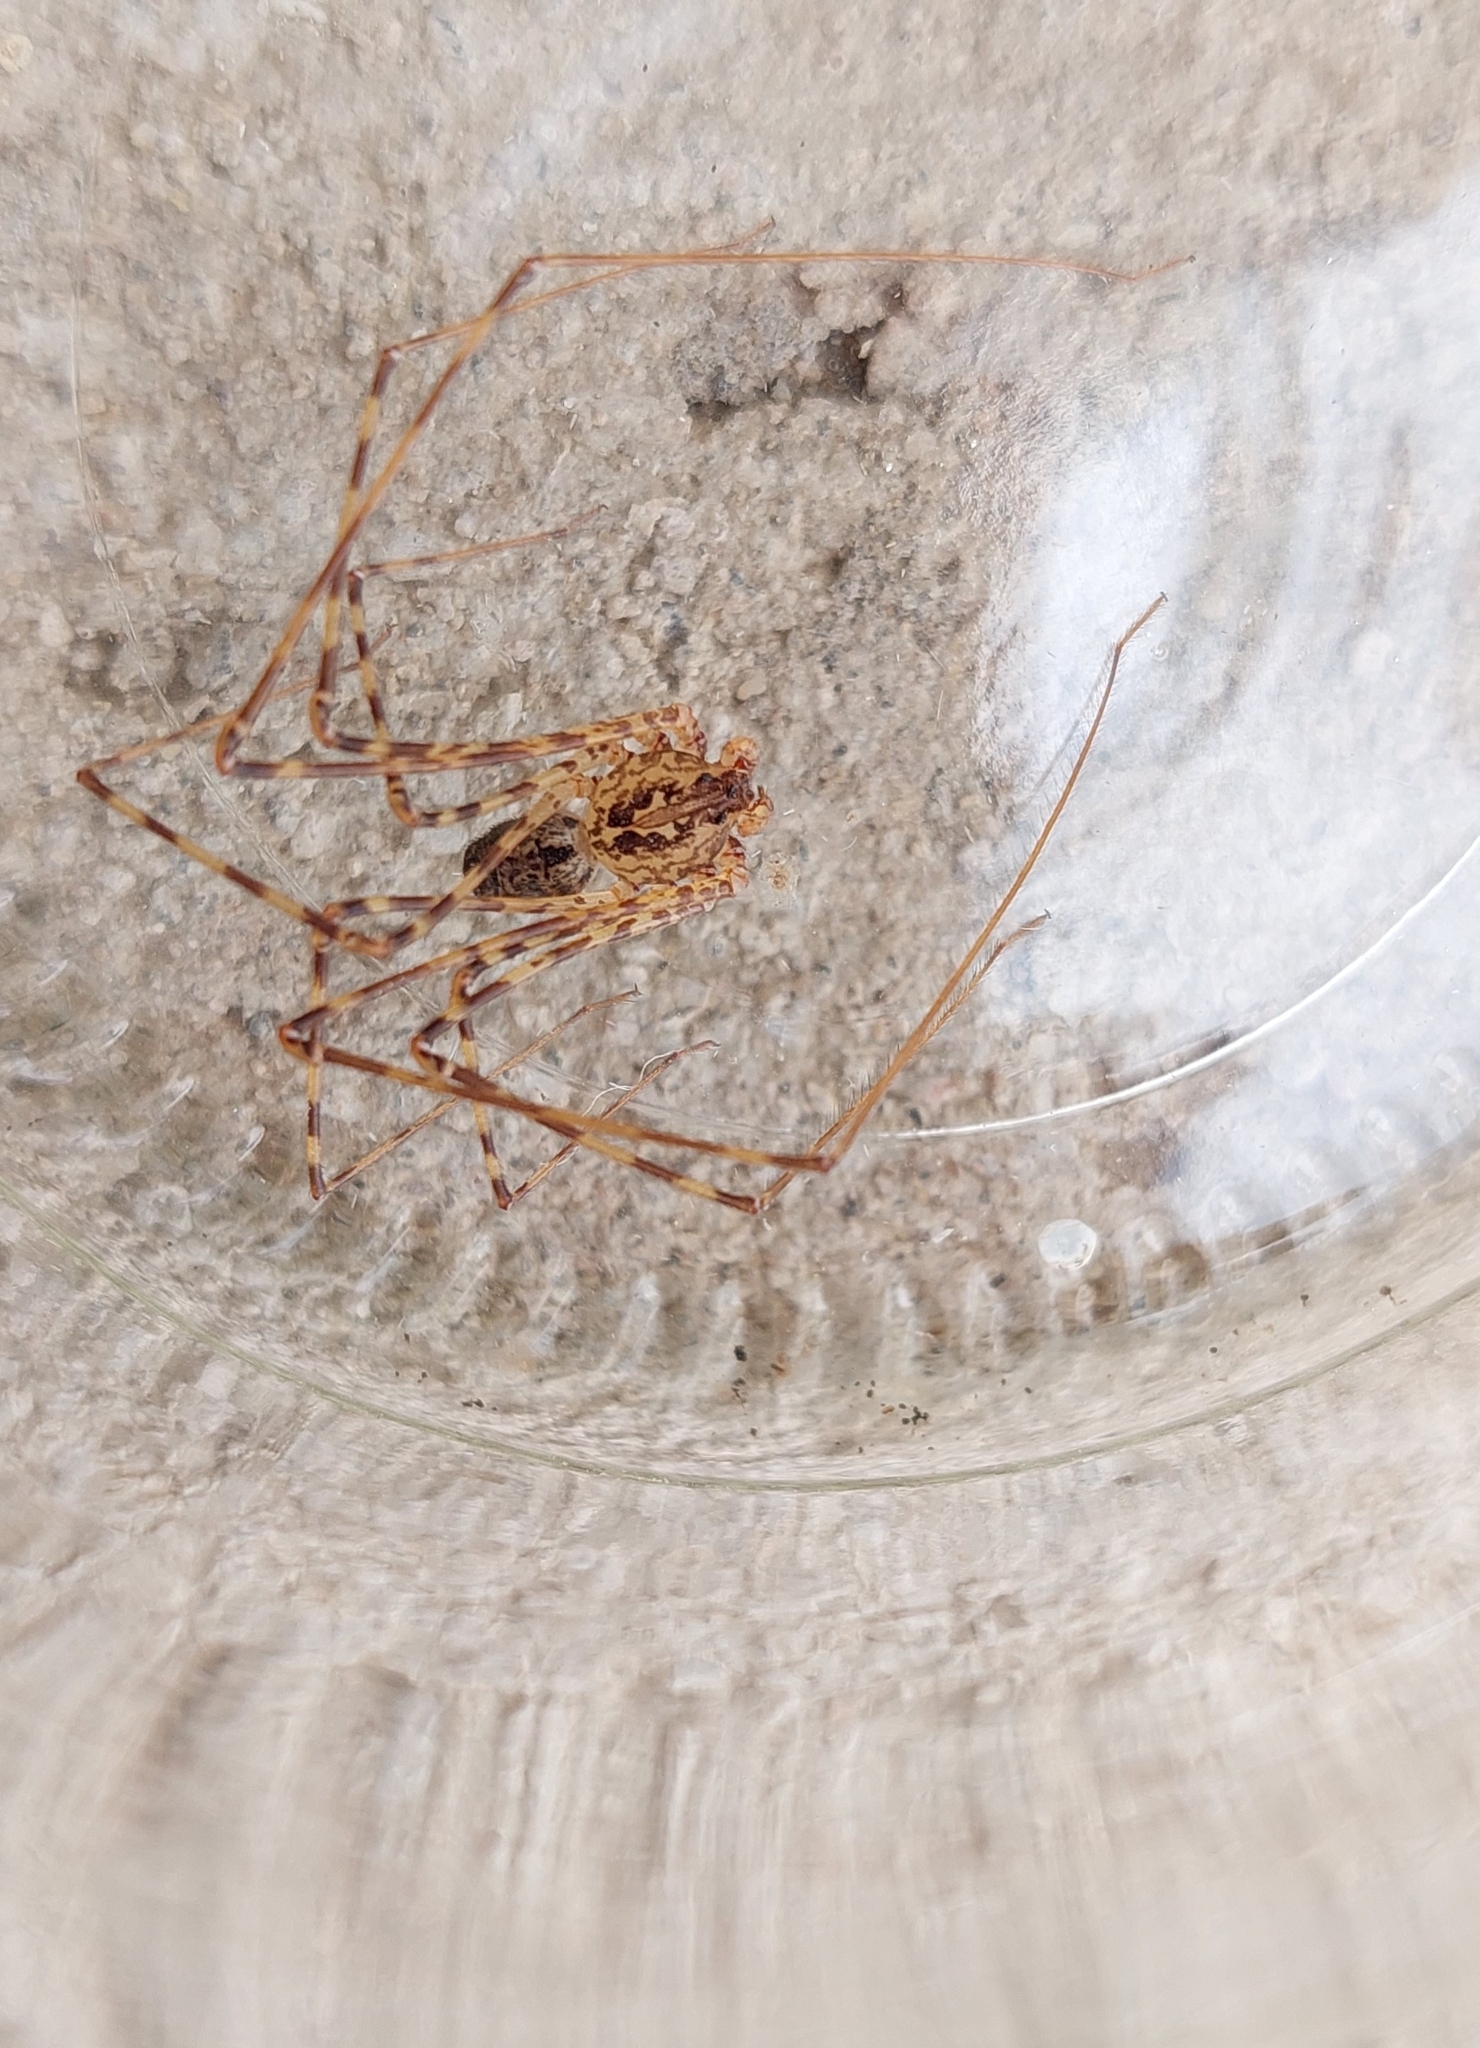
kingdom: Animalia
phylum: Arthropoda
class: Arachnida
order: Araneae
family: Scytodidae
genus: Scytodes
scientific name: Scytodes globula
